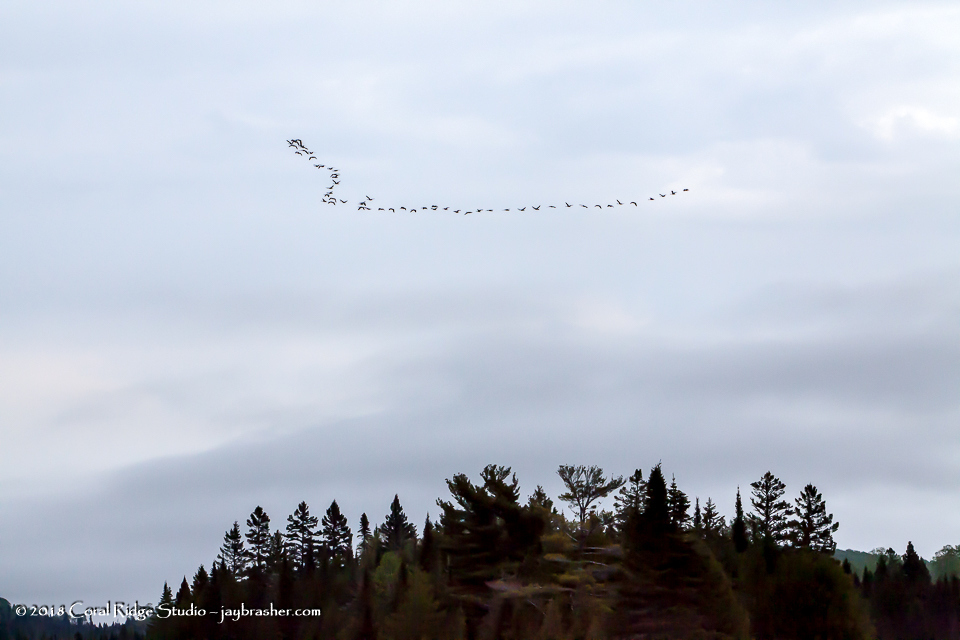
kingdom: Animalia
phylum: Chordata
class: Aves
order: Anseriformes
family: Anatidae
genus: Branta
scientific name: Branta canadensis
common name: Canada goose
